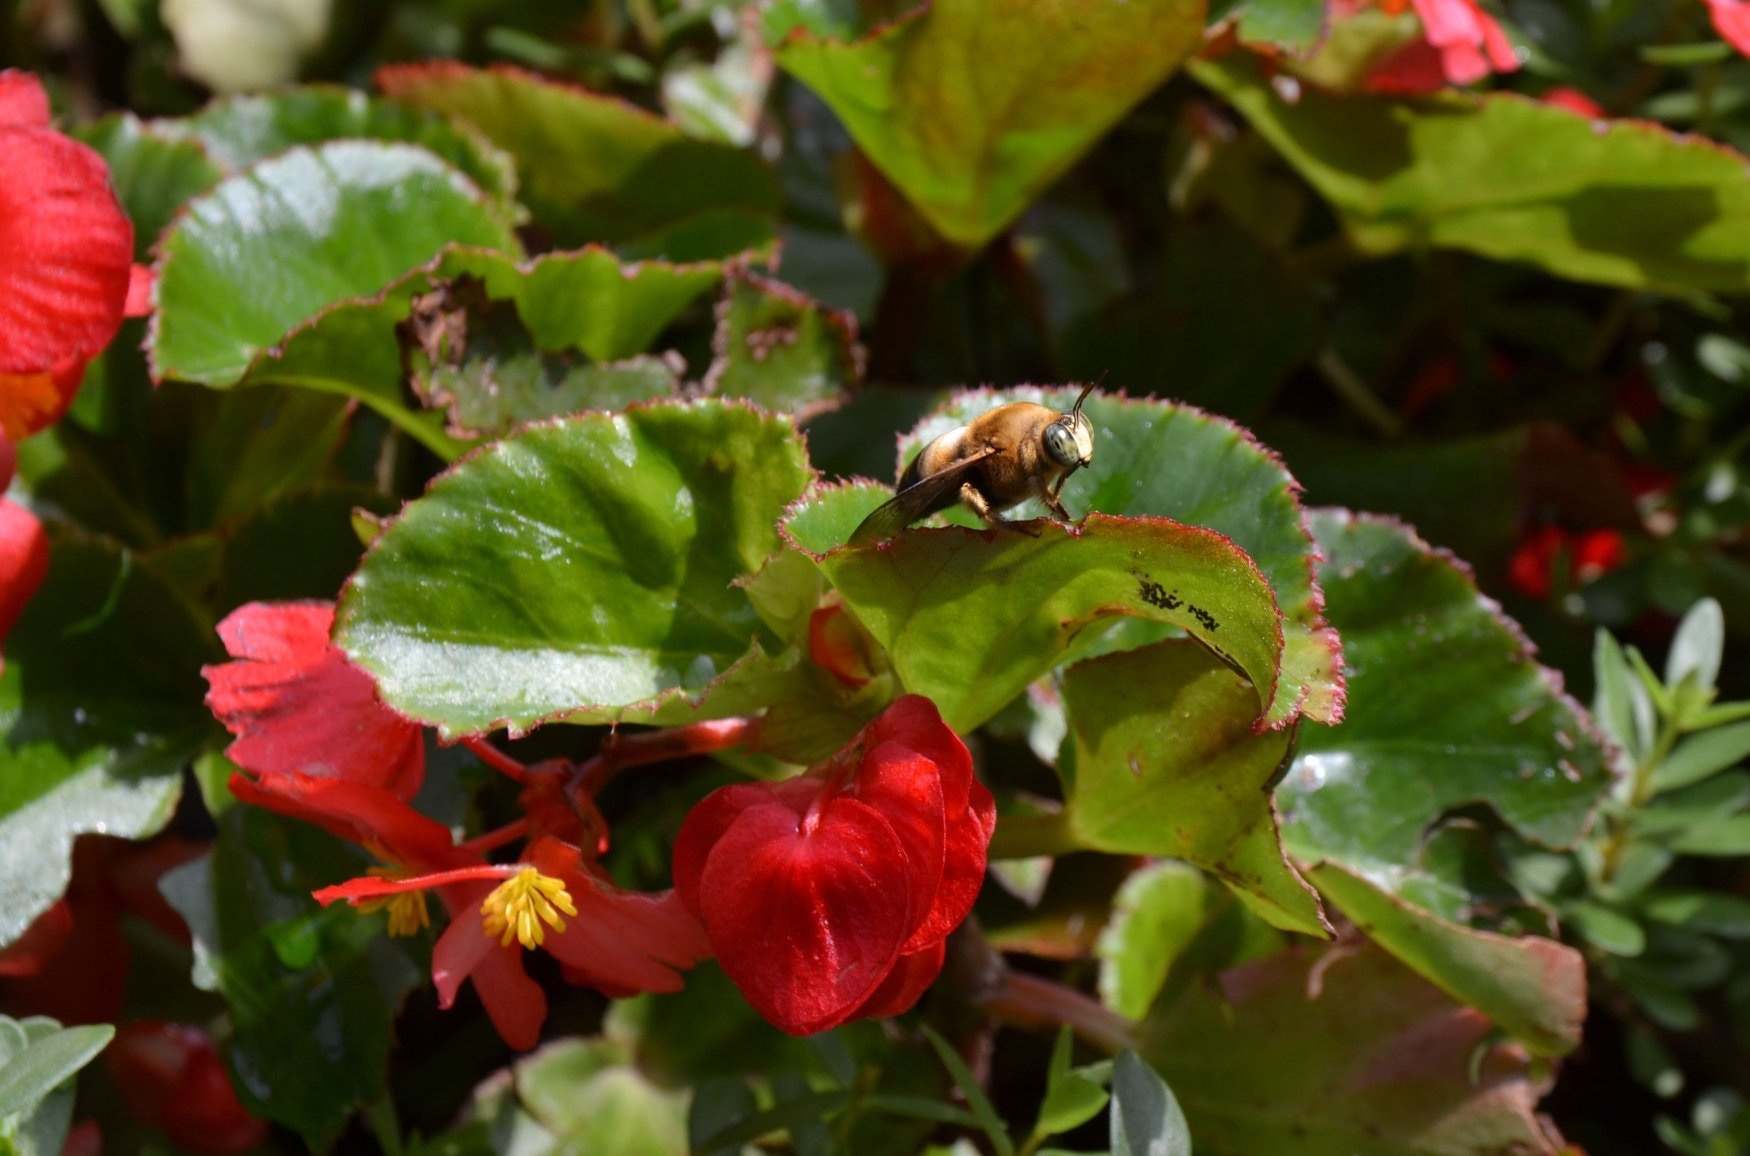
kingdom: Animalia
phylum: Arthropoda
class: Insecta
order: Hymenoptera
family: Apidae
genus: Xylocopa
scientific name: Xylocopa dejeanii
